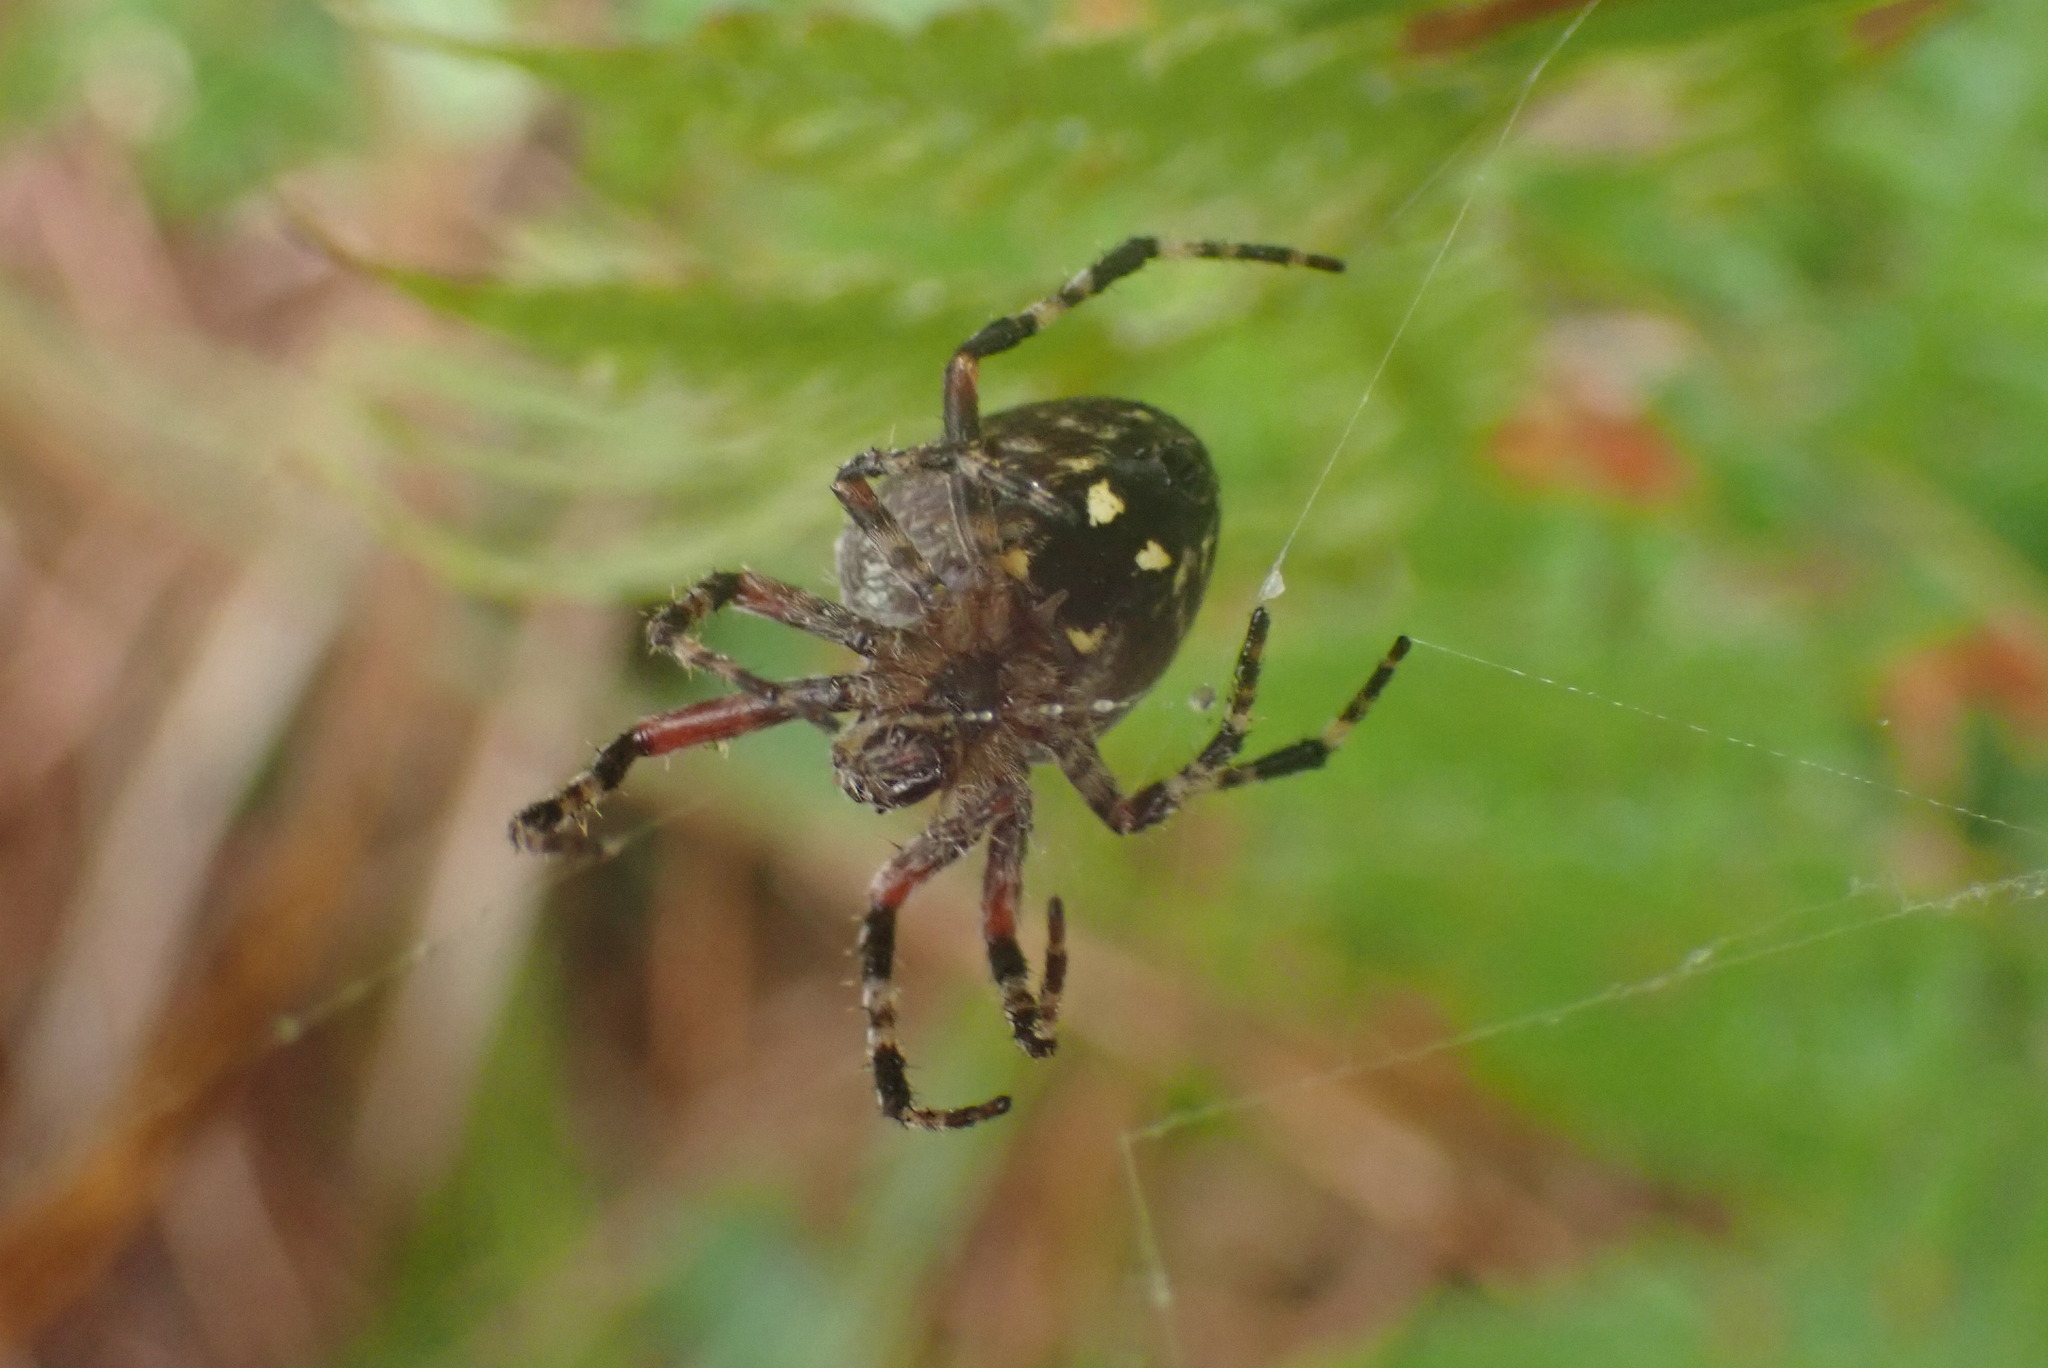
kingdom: Animalia
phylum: Arthropoda
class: Arachnida
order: Araneae
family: Araneidae
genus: Araneus
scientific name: Araneus nordmanni
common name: Nordmann's orbweaver
